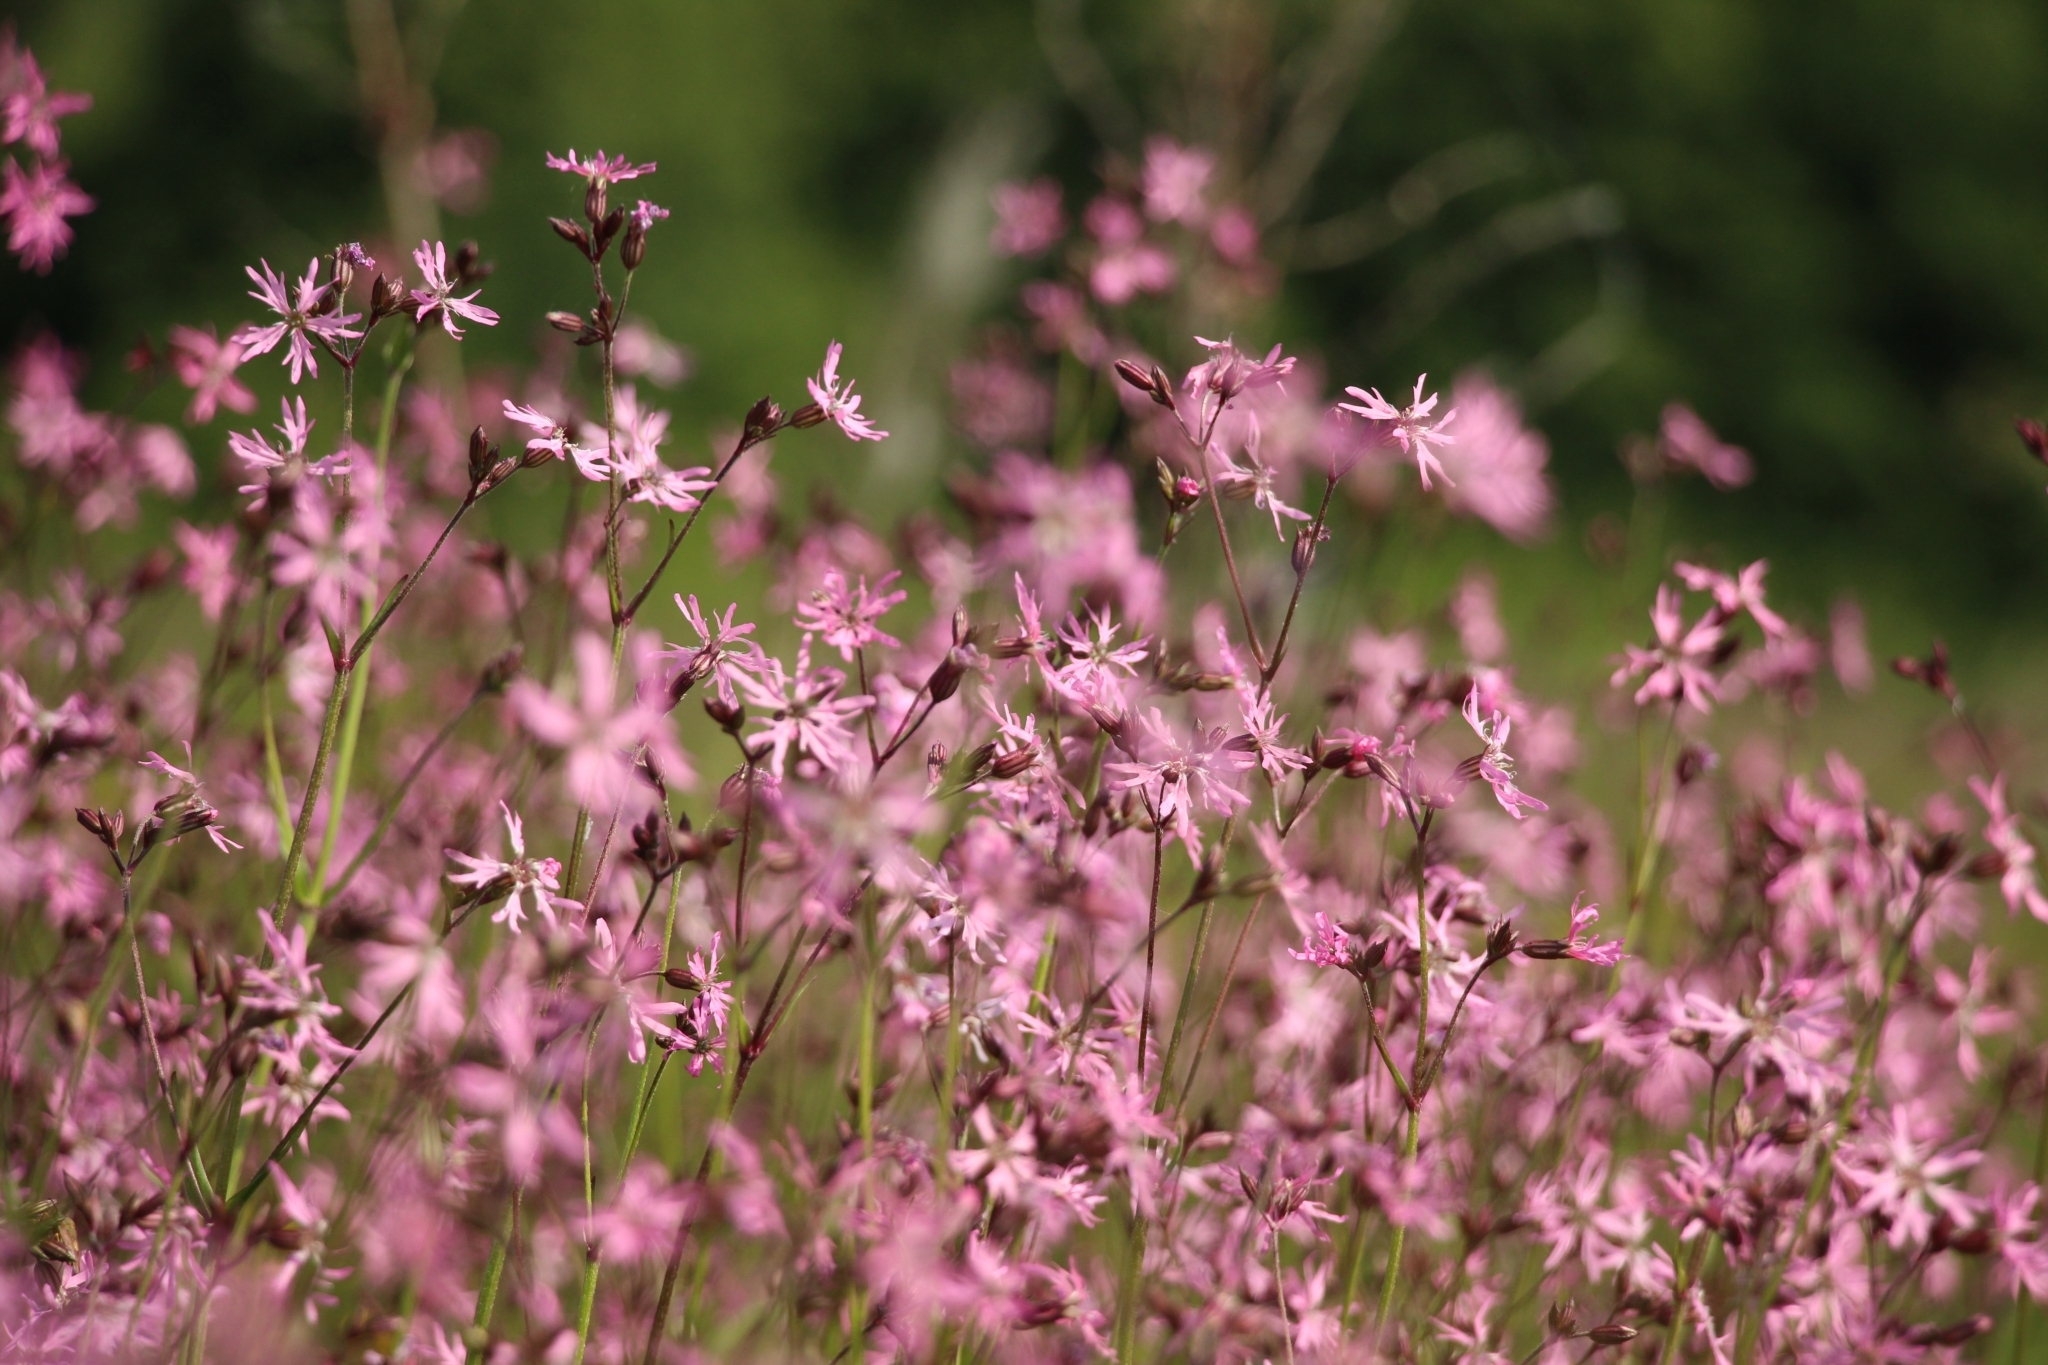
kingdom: Plantae
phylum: Tracheophyta
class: Magnoliopsida
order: Caryophyllales
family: Caryophyllaceae
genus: Silene
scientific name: Silene flos-cuculi
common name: Ragged-robin
